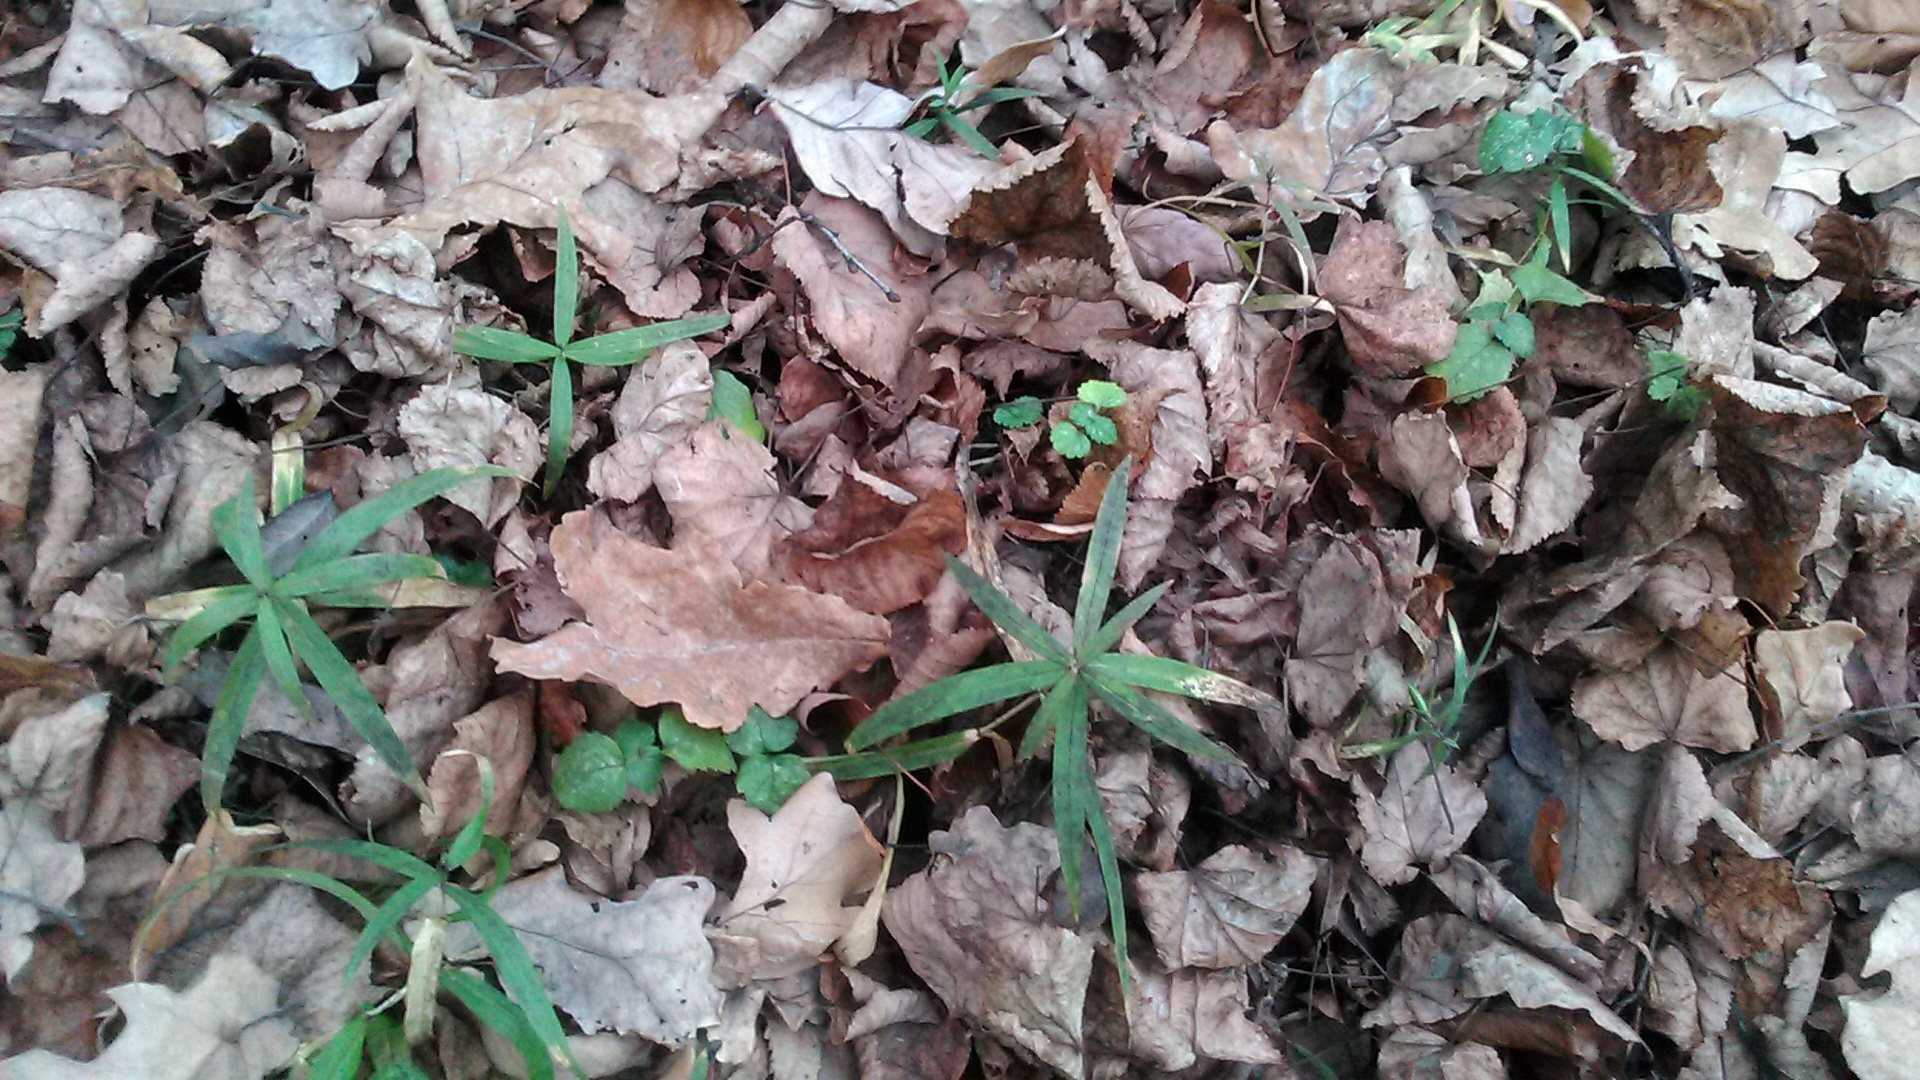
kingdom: Plantae
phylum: Tracheophyta
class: Magnoliopsida
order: Caryophyllales
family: Caryophyllaceae
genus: Rabelera
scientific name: Rabelera holostea
